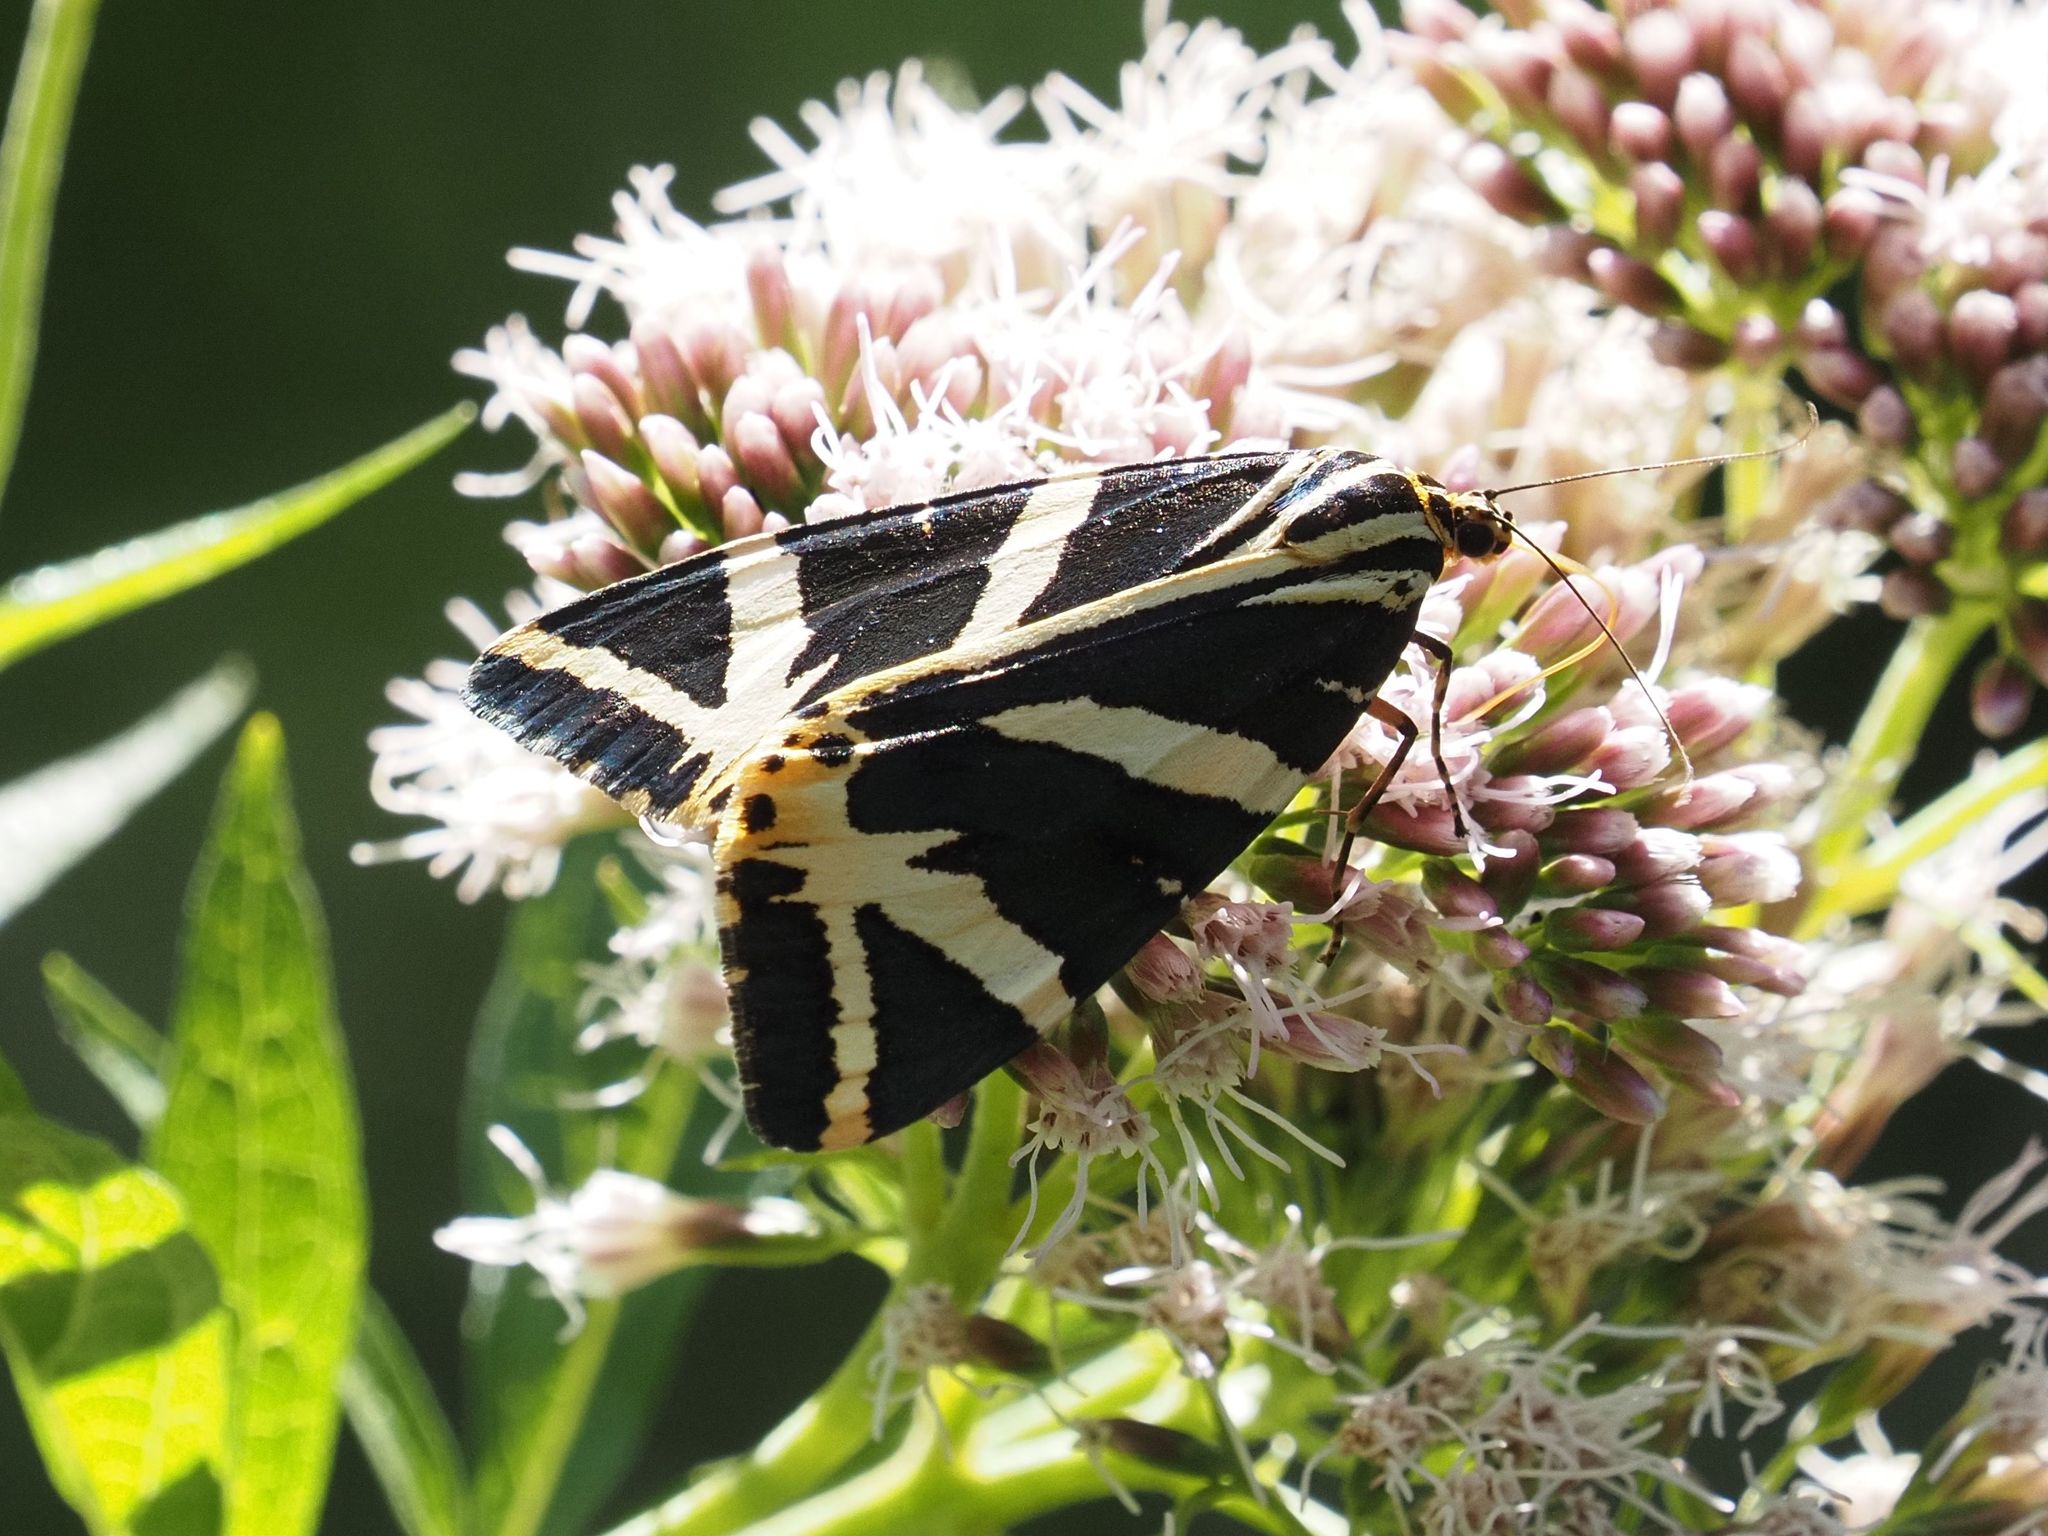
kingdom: Animalia
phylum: Arthropoda
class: Insecta
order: Lepidoptera
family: Erebidae
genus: Euplagia
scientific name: Euplagia quadripunctaria
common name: Jersey tiger
